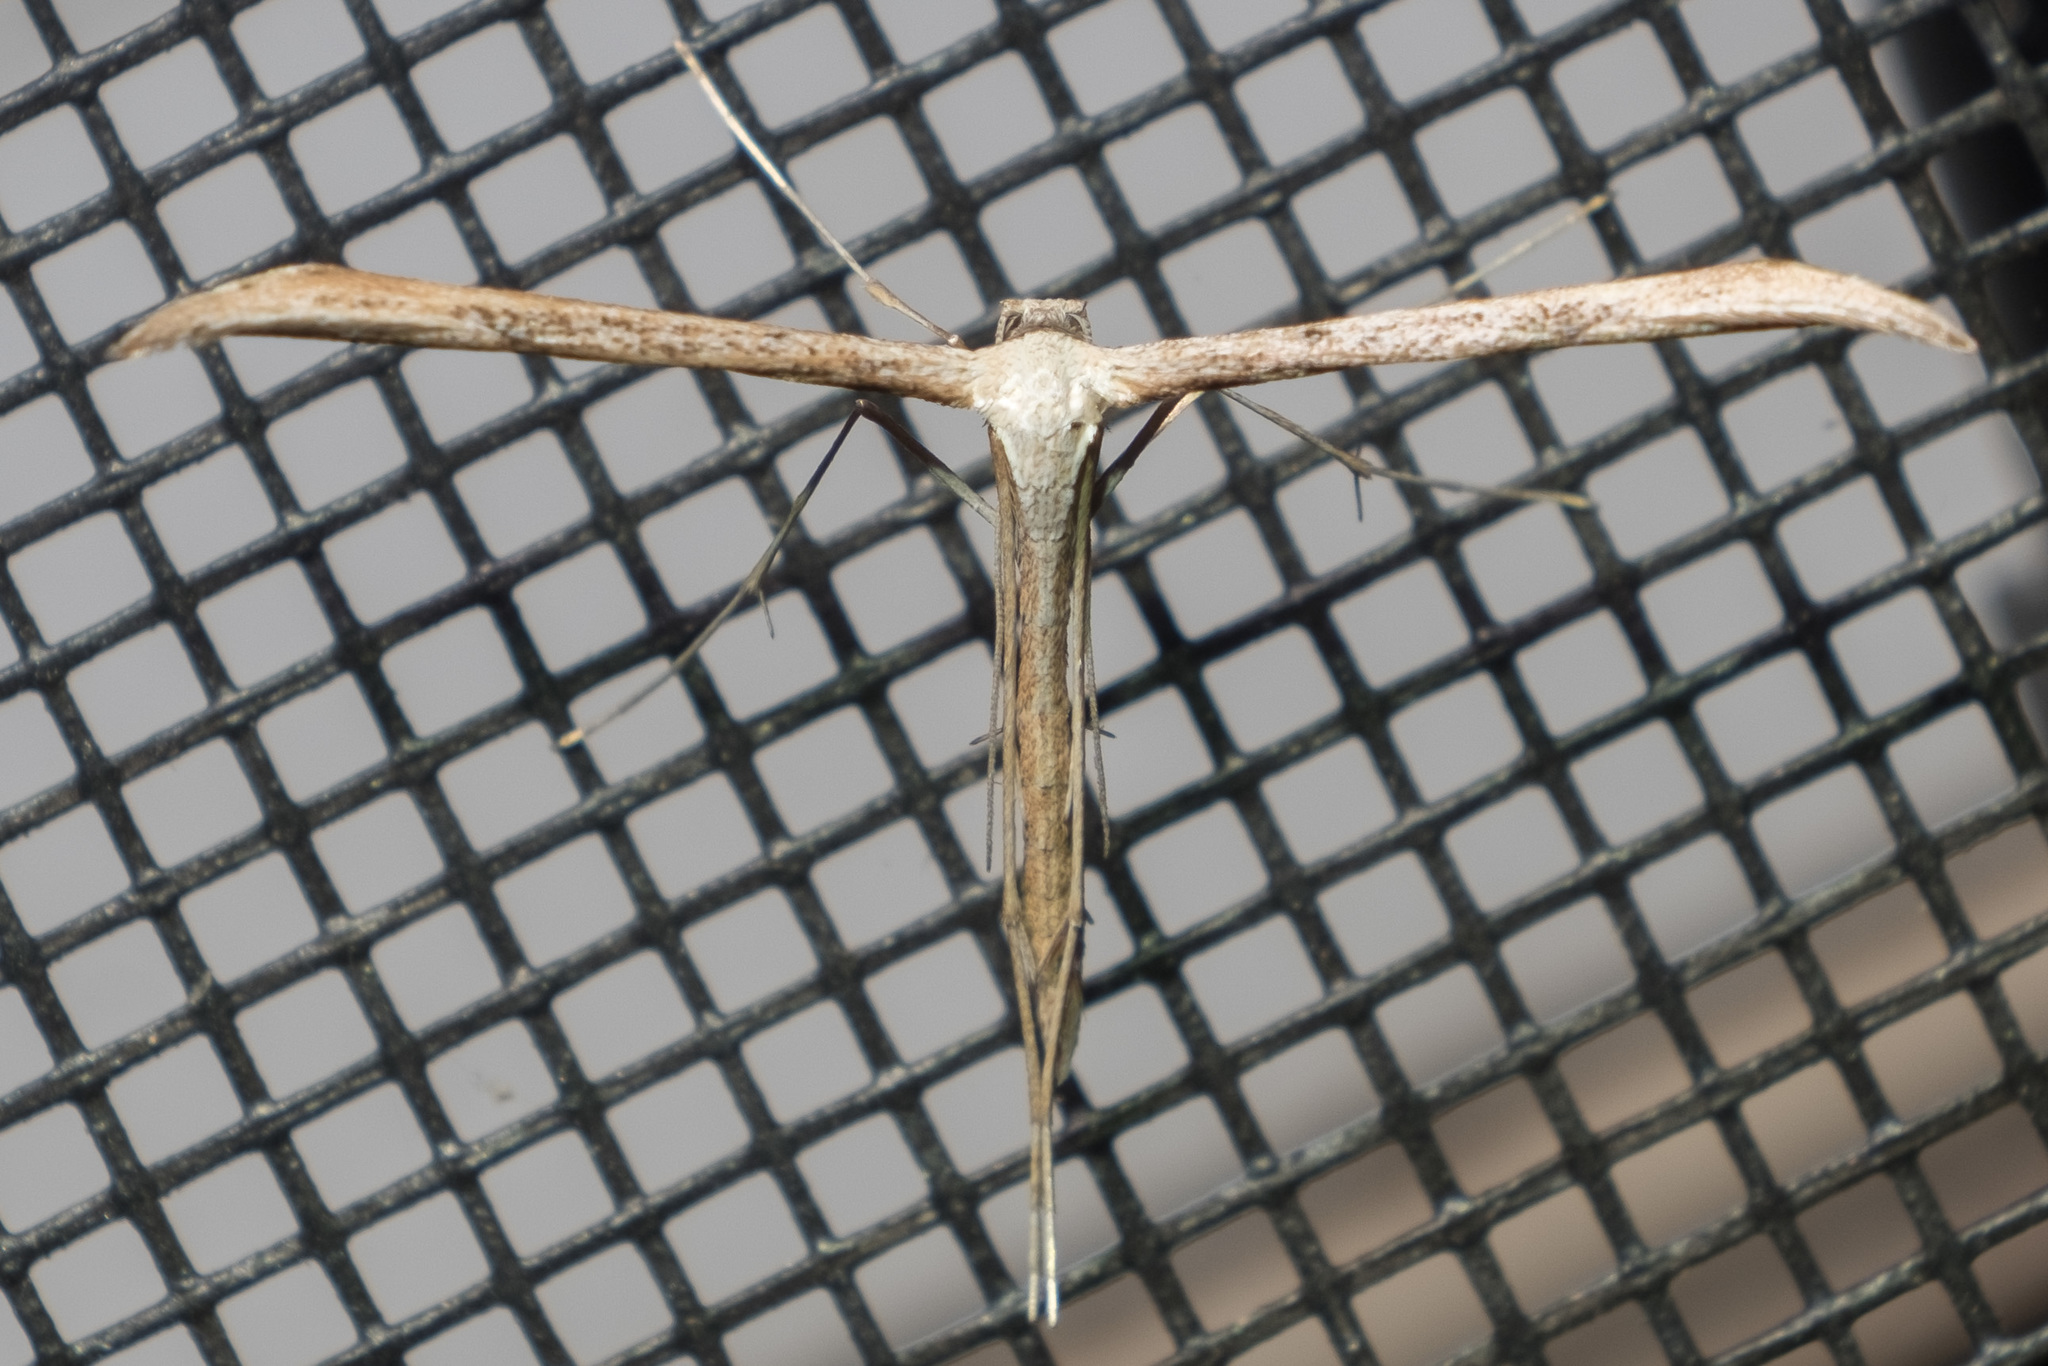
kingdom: Animalia
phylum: Arthropoda
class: Insecta
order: Lepidoptera
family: Pterophoridae
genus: Emmelina
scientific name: Emmelina monodactyla
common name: Common plume
